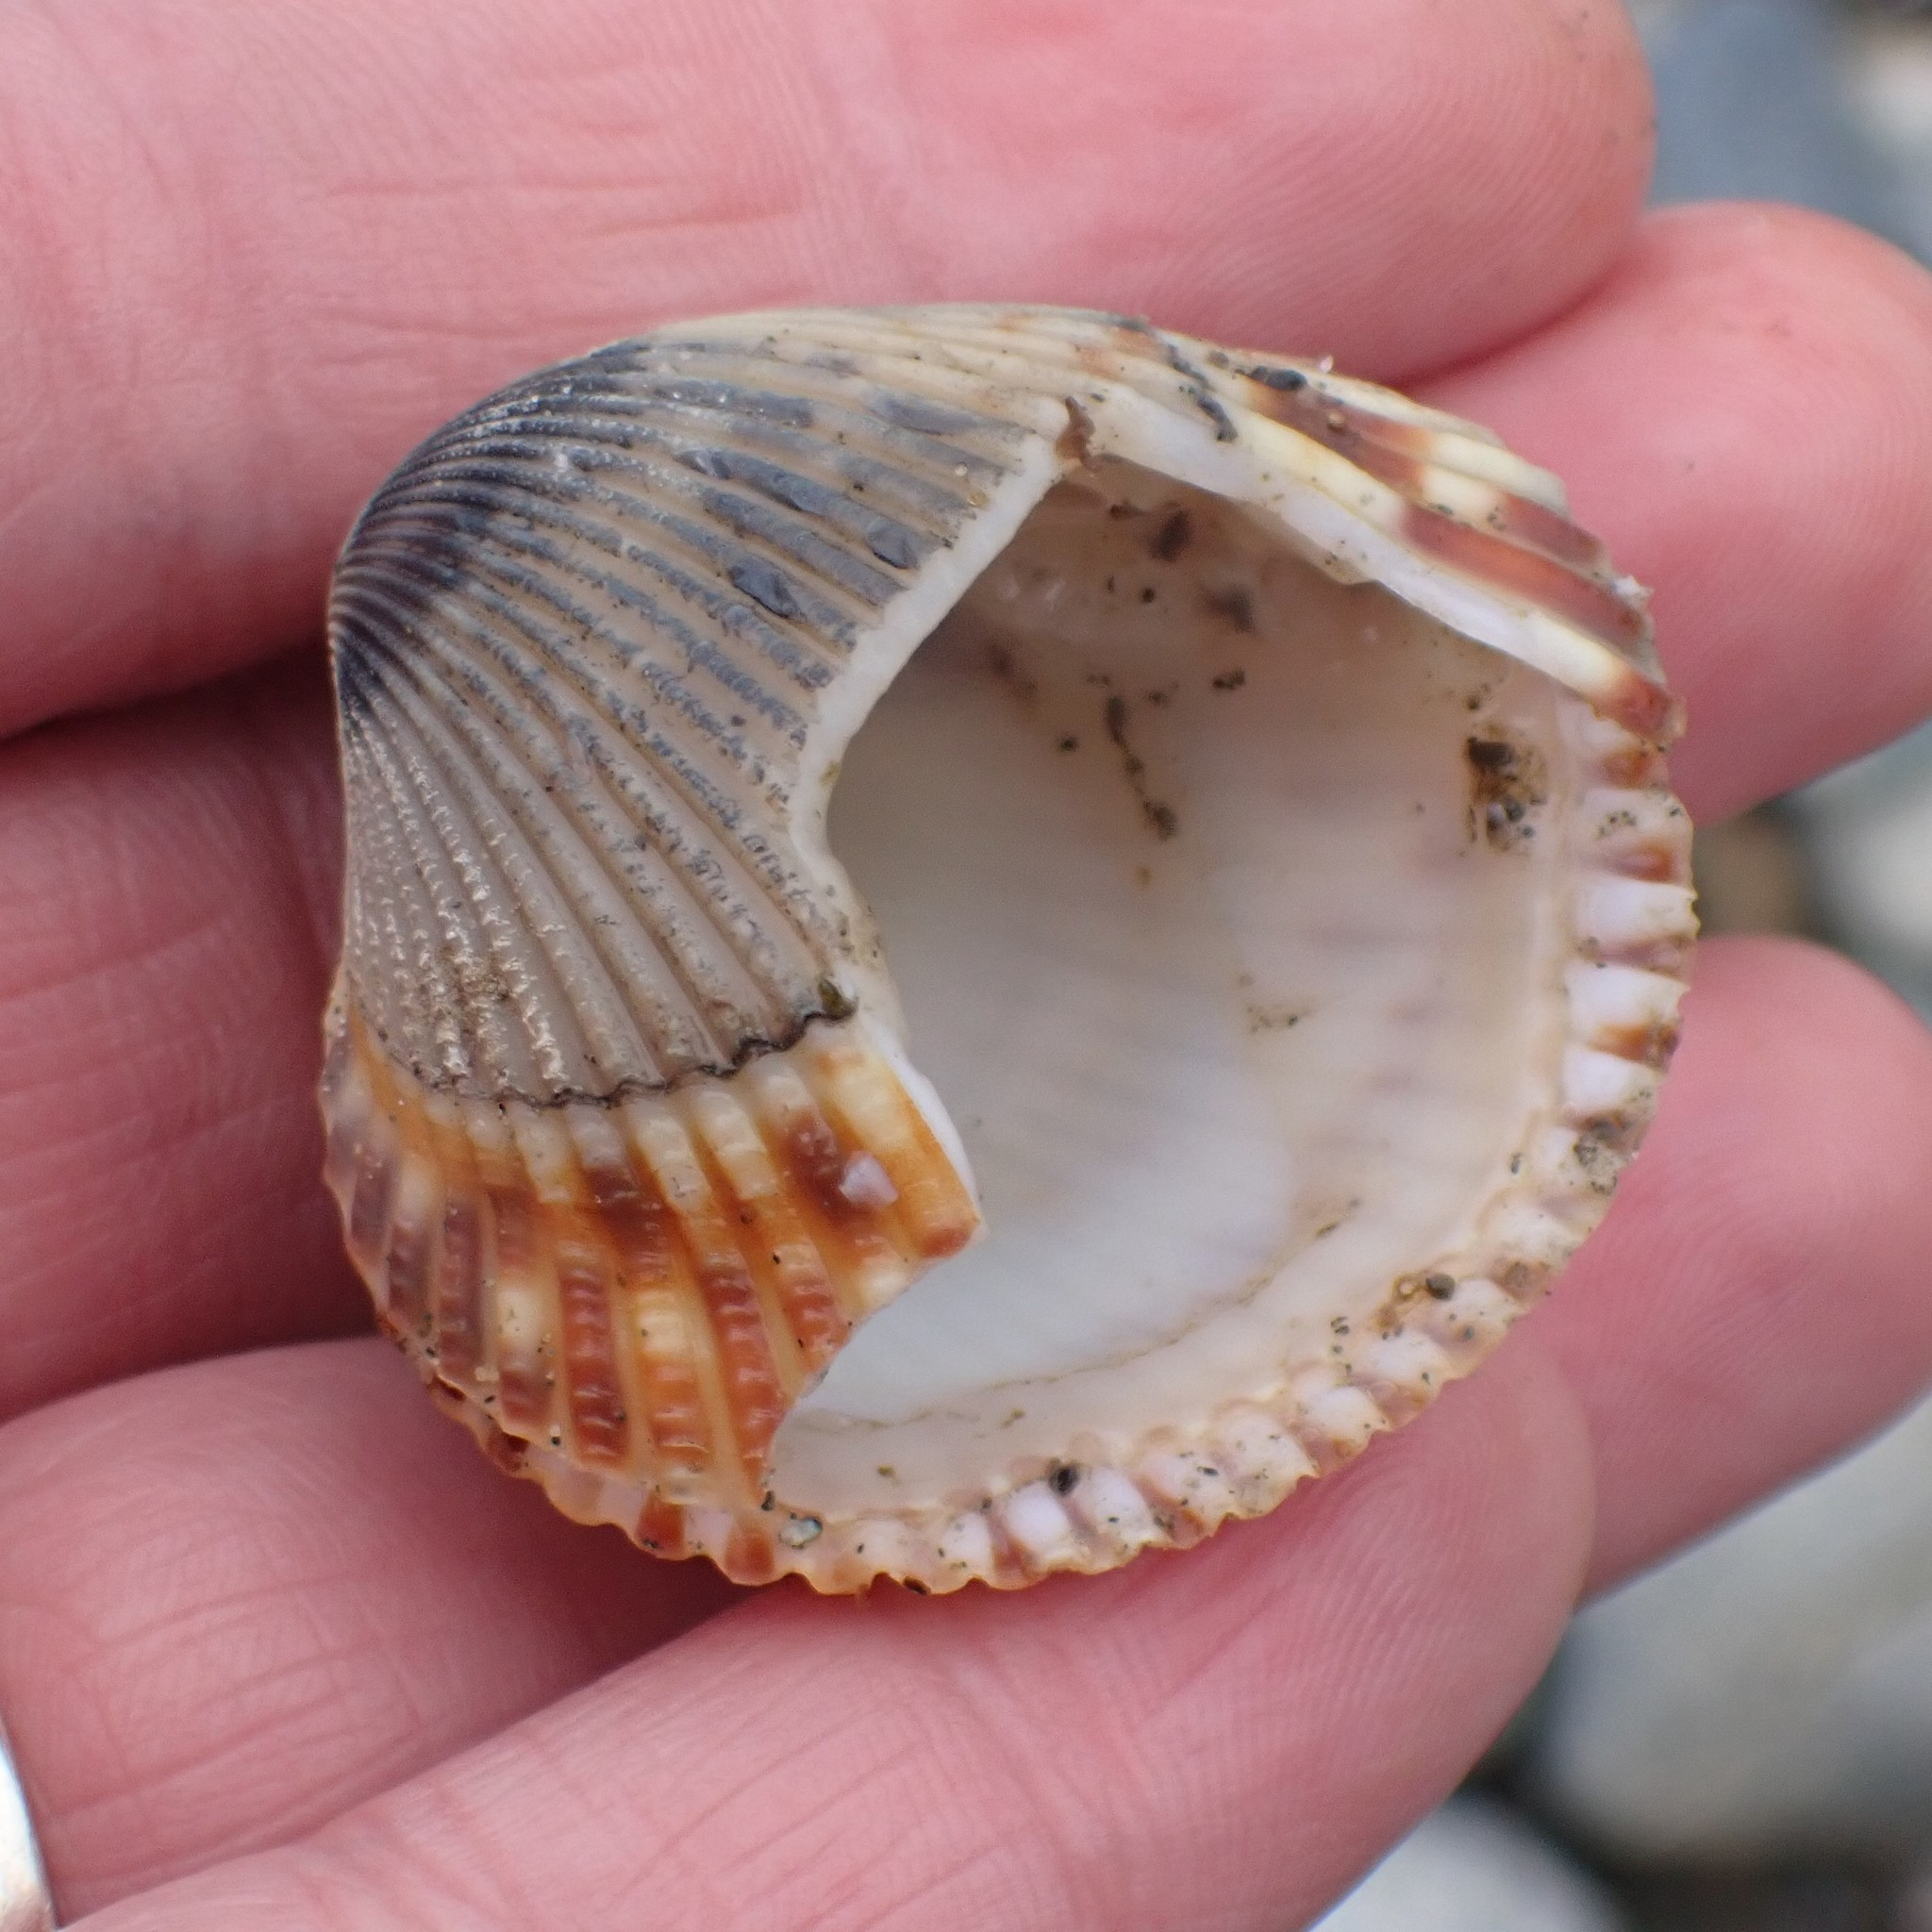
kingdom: Animalia
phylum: Mollusca
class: Bivalvia
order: Cardiida
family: Cardiidae
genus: Clinocardium
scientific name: Clinocardium nuttallii
